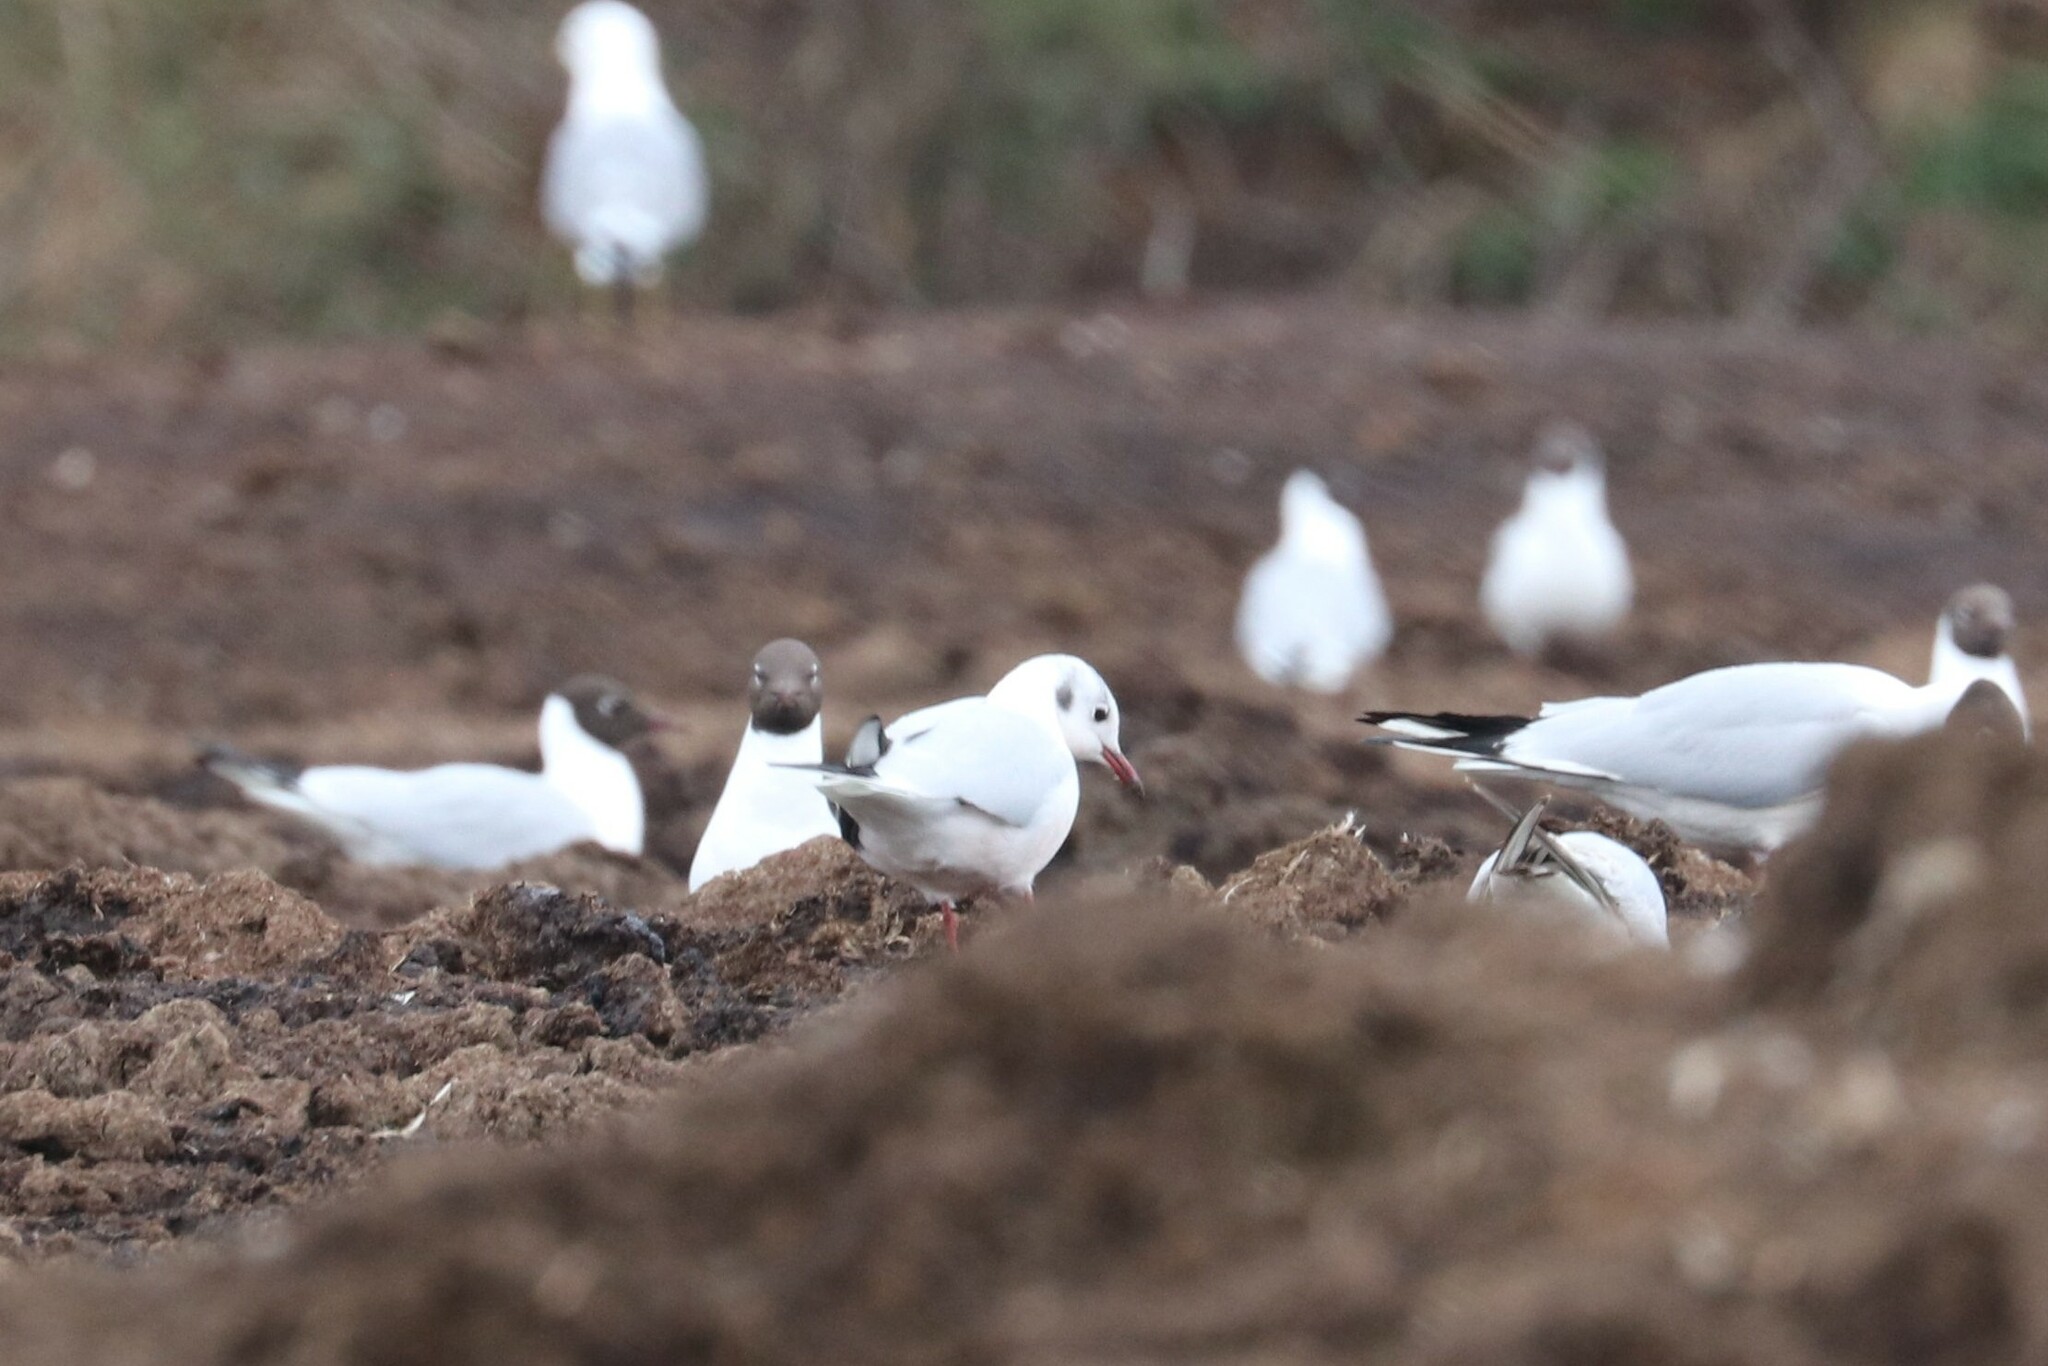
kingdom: Animalia
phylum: Chordata
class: Aves
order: Charadriiformes
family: Laridae
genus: Chroicocephalus
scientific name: Chroicocephalus ridibundus
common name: Black-headed gull
